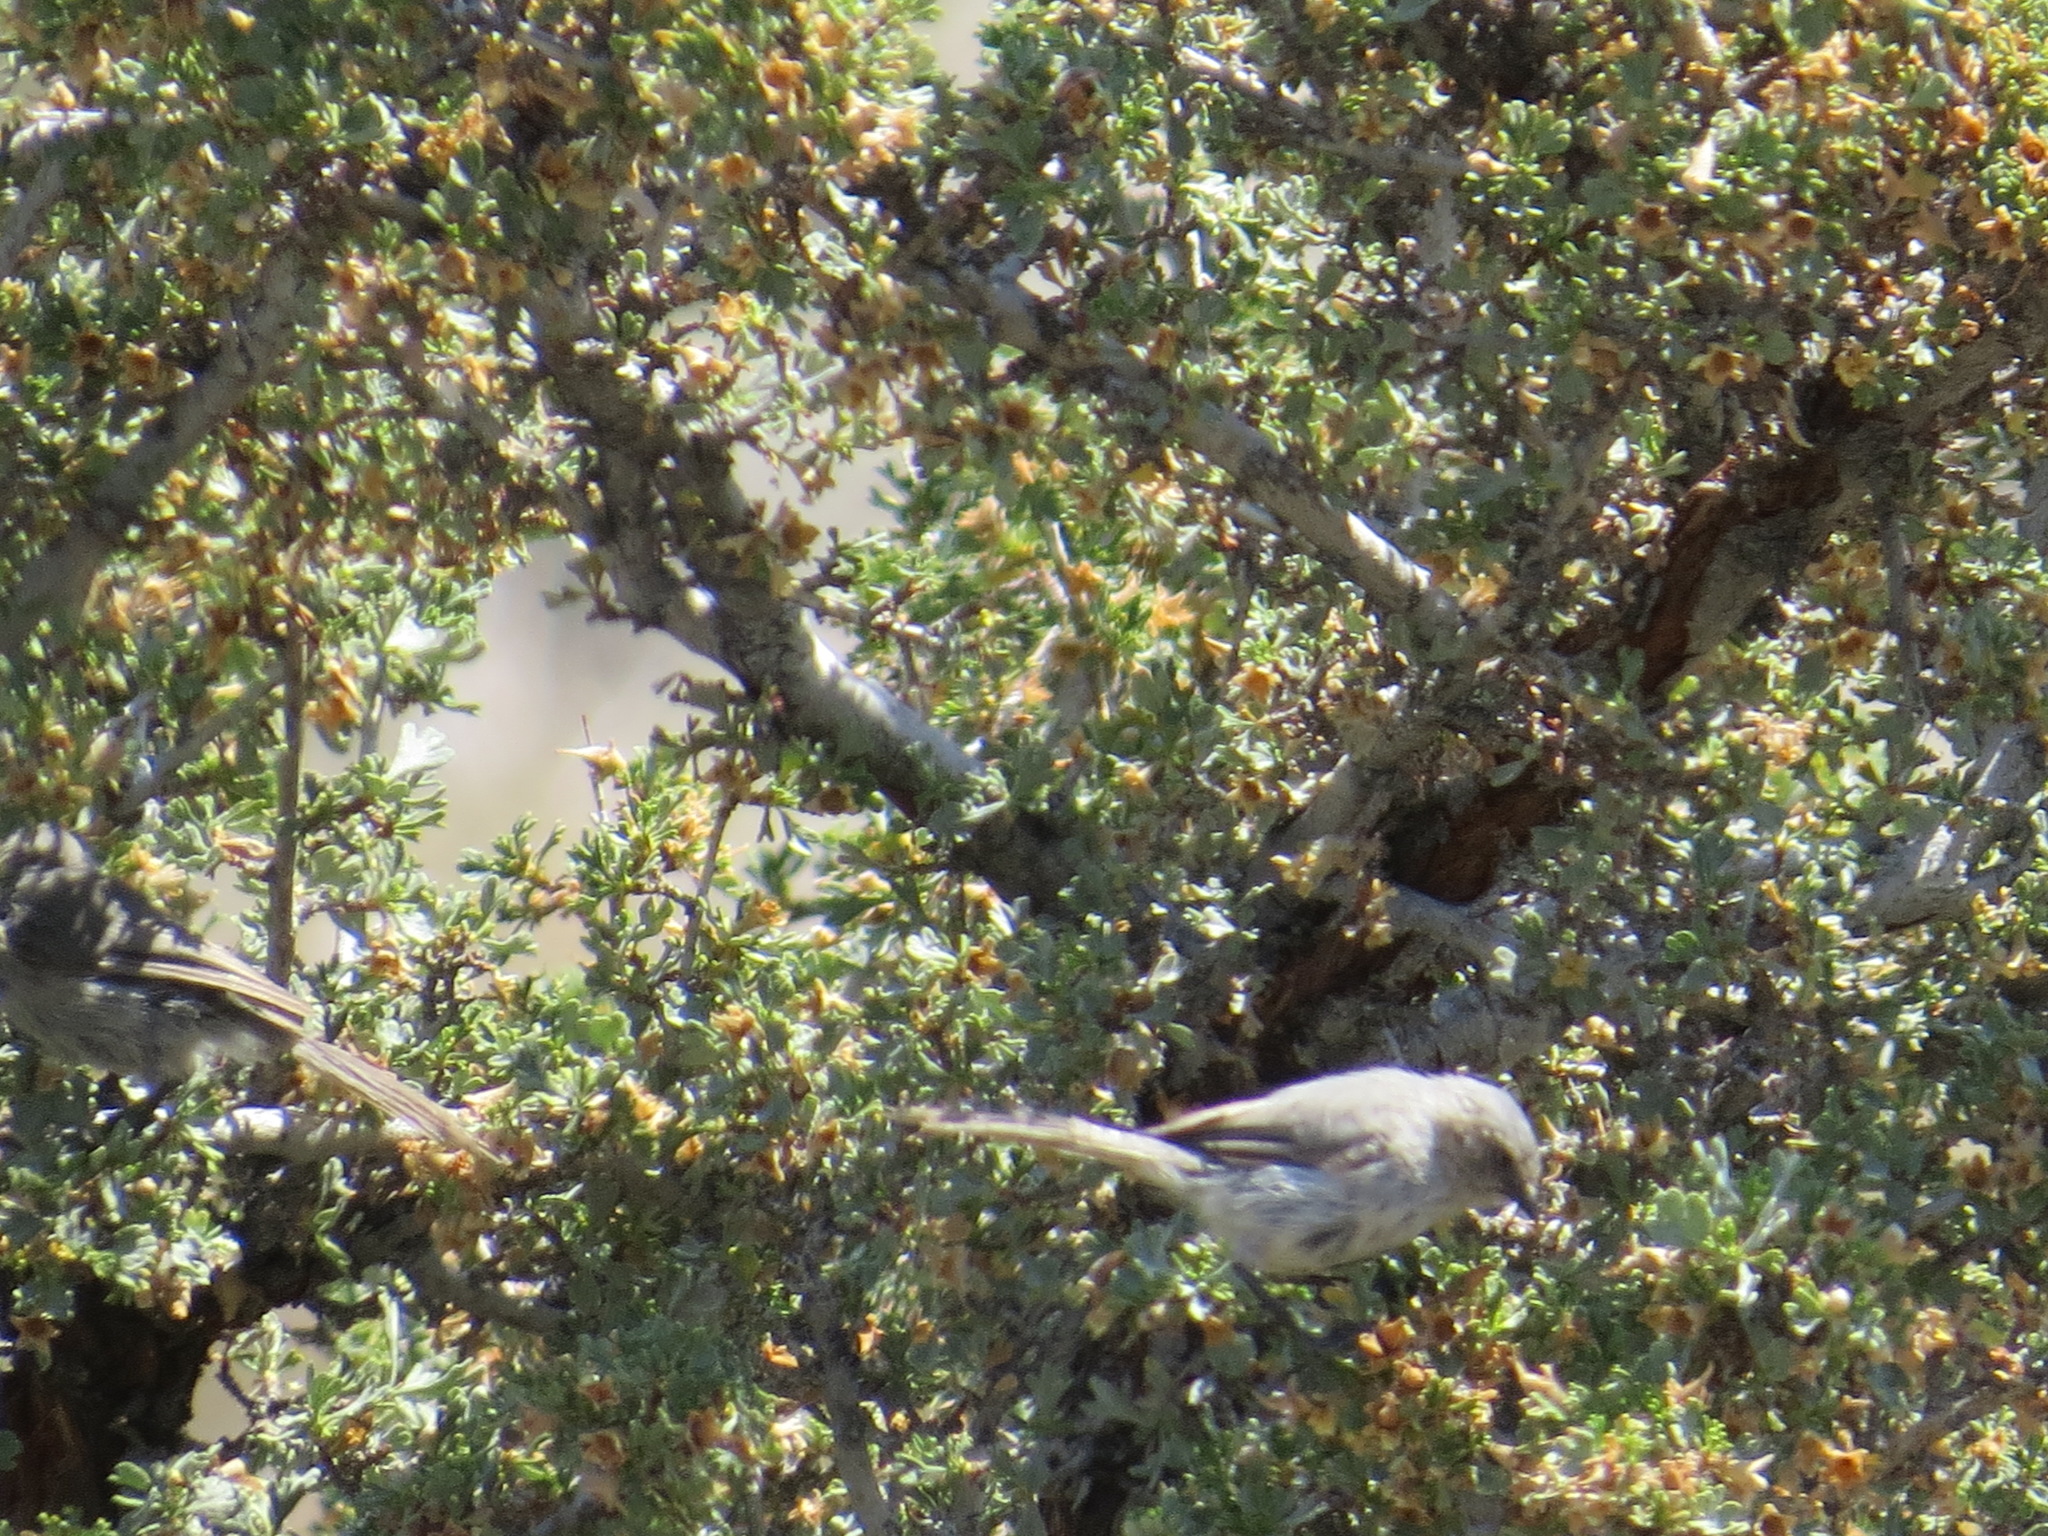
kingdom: Animalia
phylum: Chordata
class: Aves
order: Passeriformes
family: Aegithalidae
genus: Psaltriparus
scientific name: Psaltriparus minimus
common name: American bushtit
